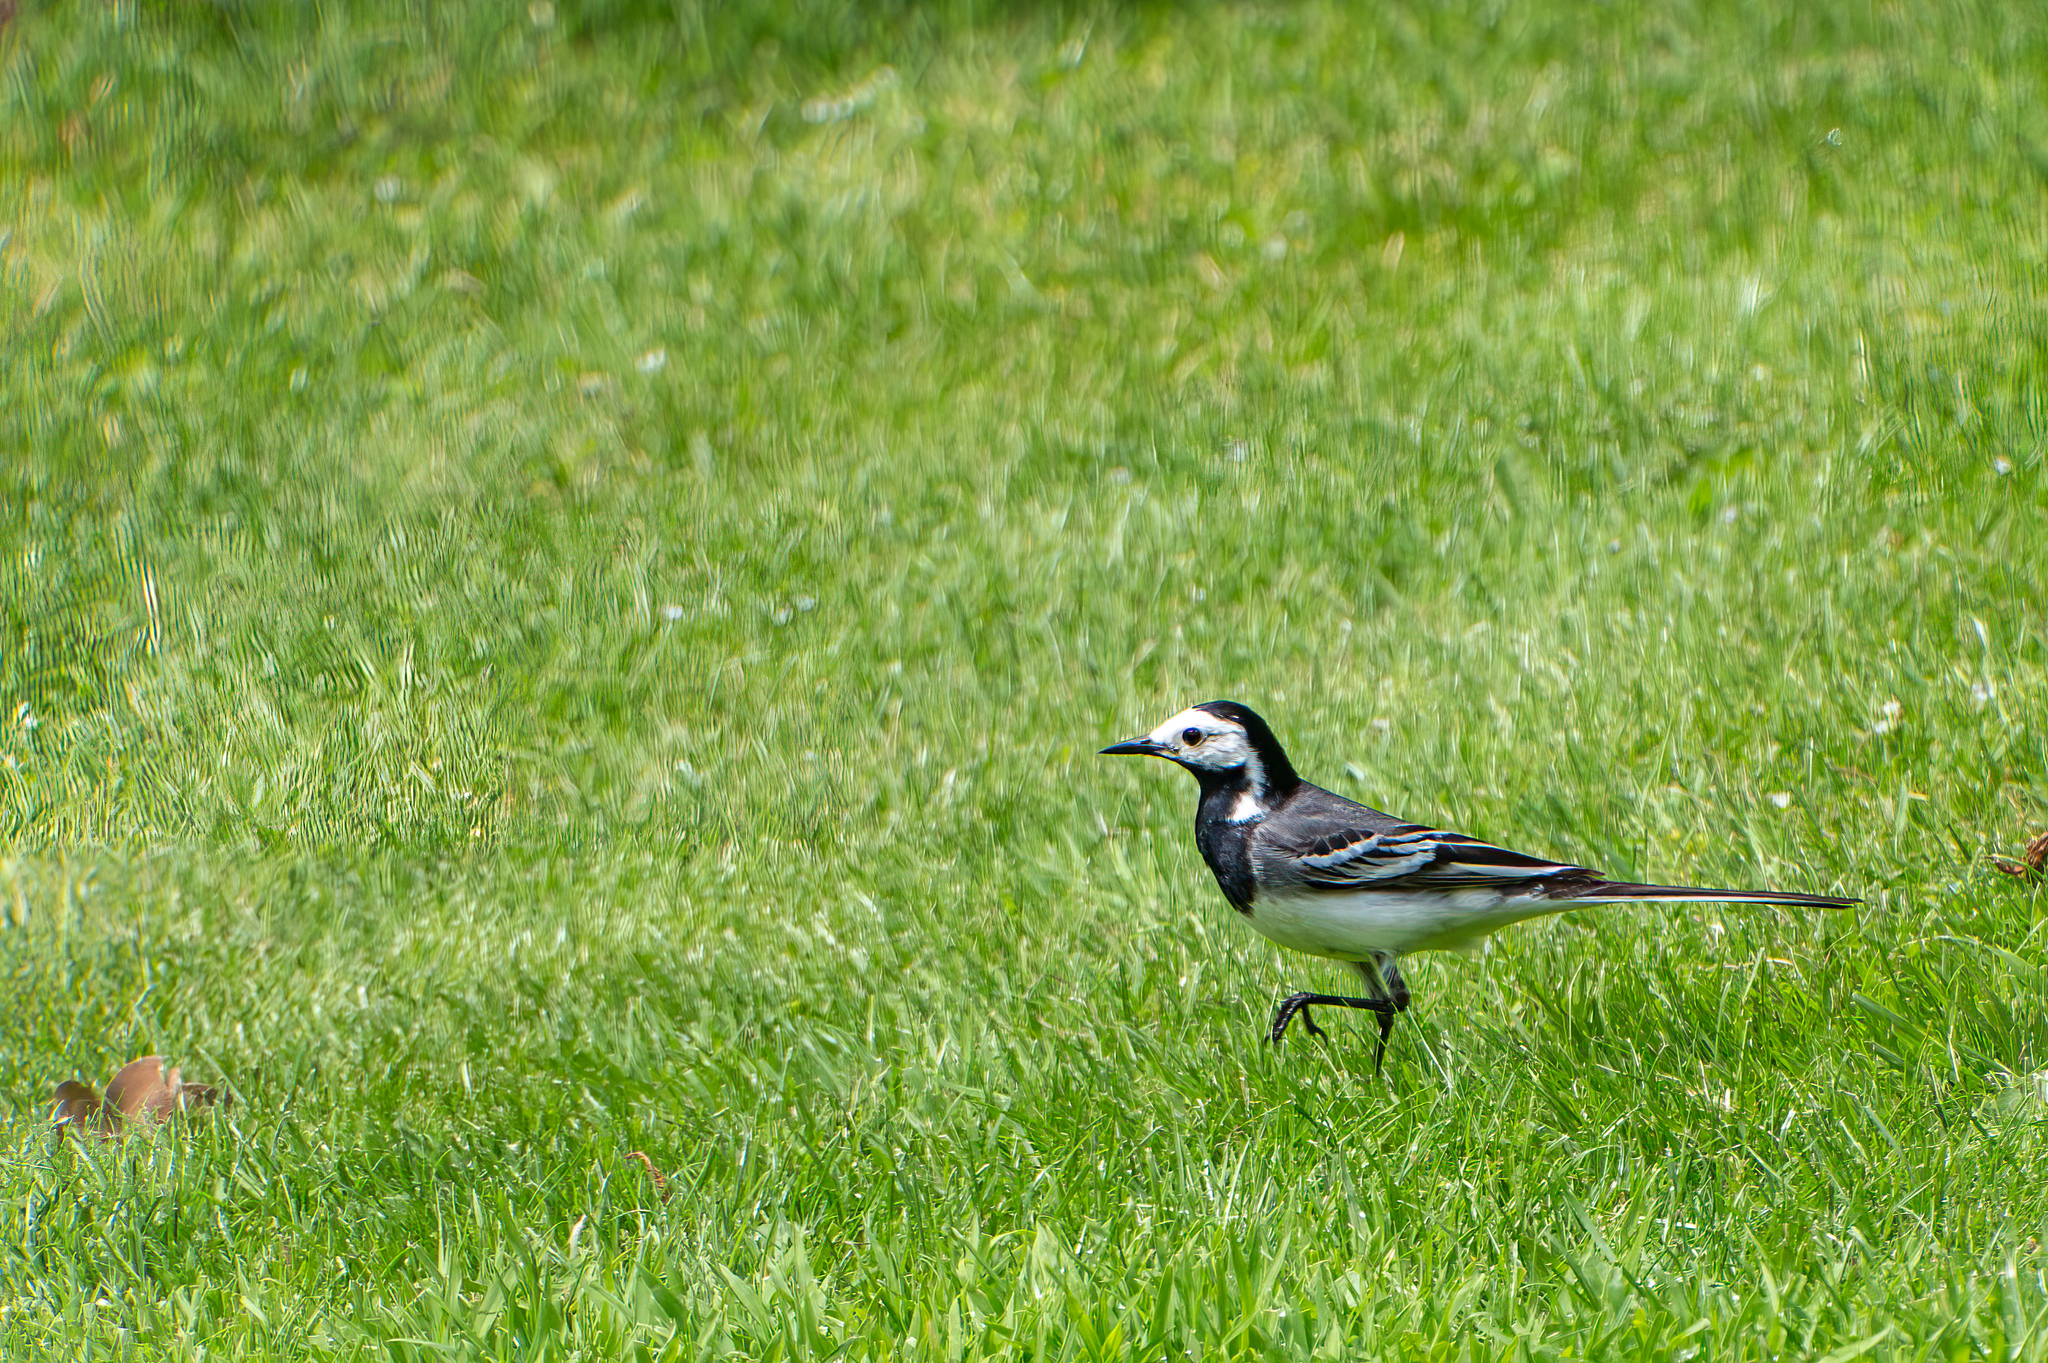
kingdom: Animalia
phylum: Chordata
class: Aves
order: Passeriformes
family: Motacillidae
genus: Motacilla
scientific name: Motacilla alba
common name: White wagtail
